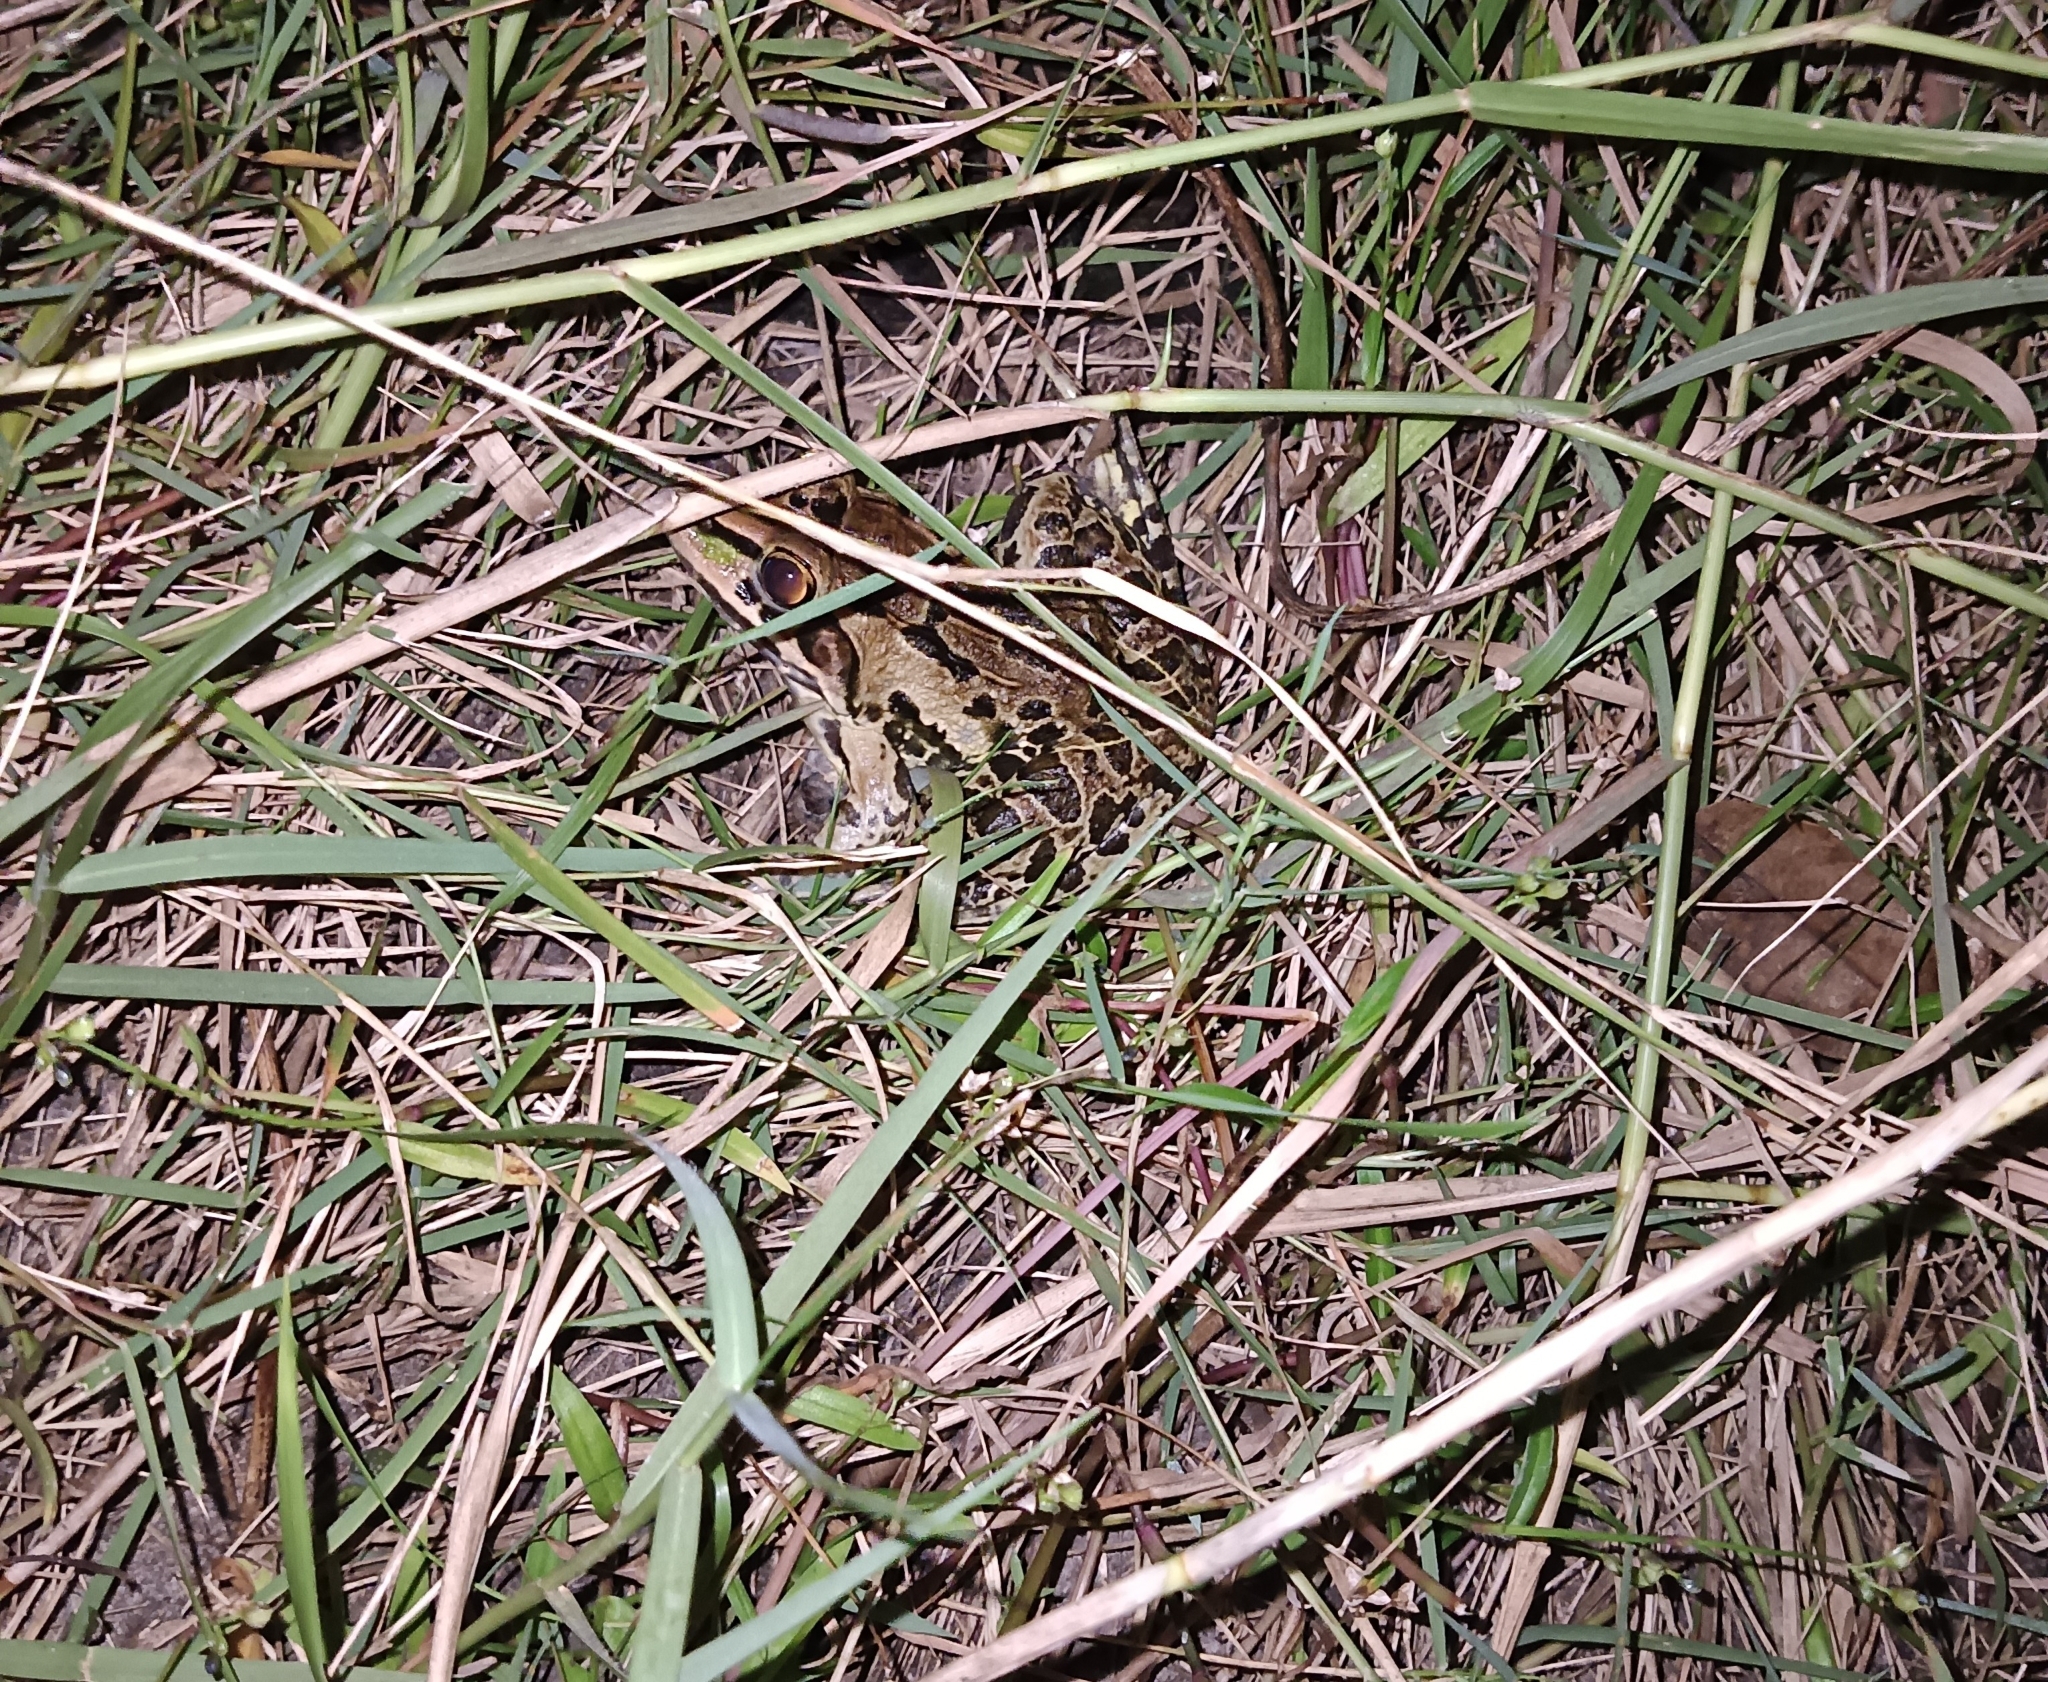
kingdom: Animalia
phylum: Chordata
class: Amphibia
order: Anura
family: Dicroglossidae
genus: Hoplobatrachus
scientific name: Hoplobatrachus tigerinus
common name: Indian bullfrog
